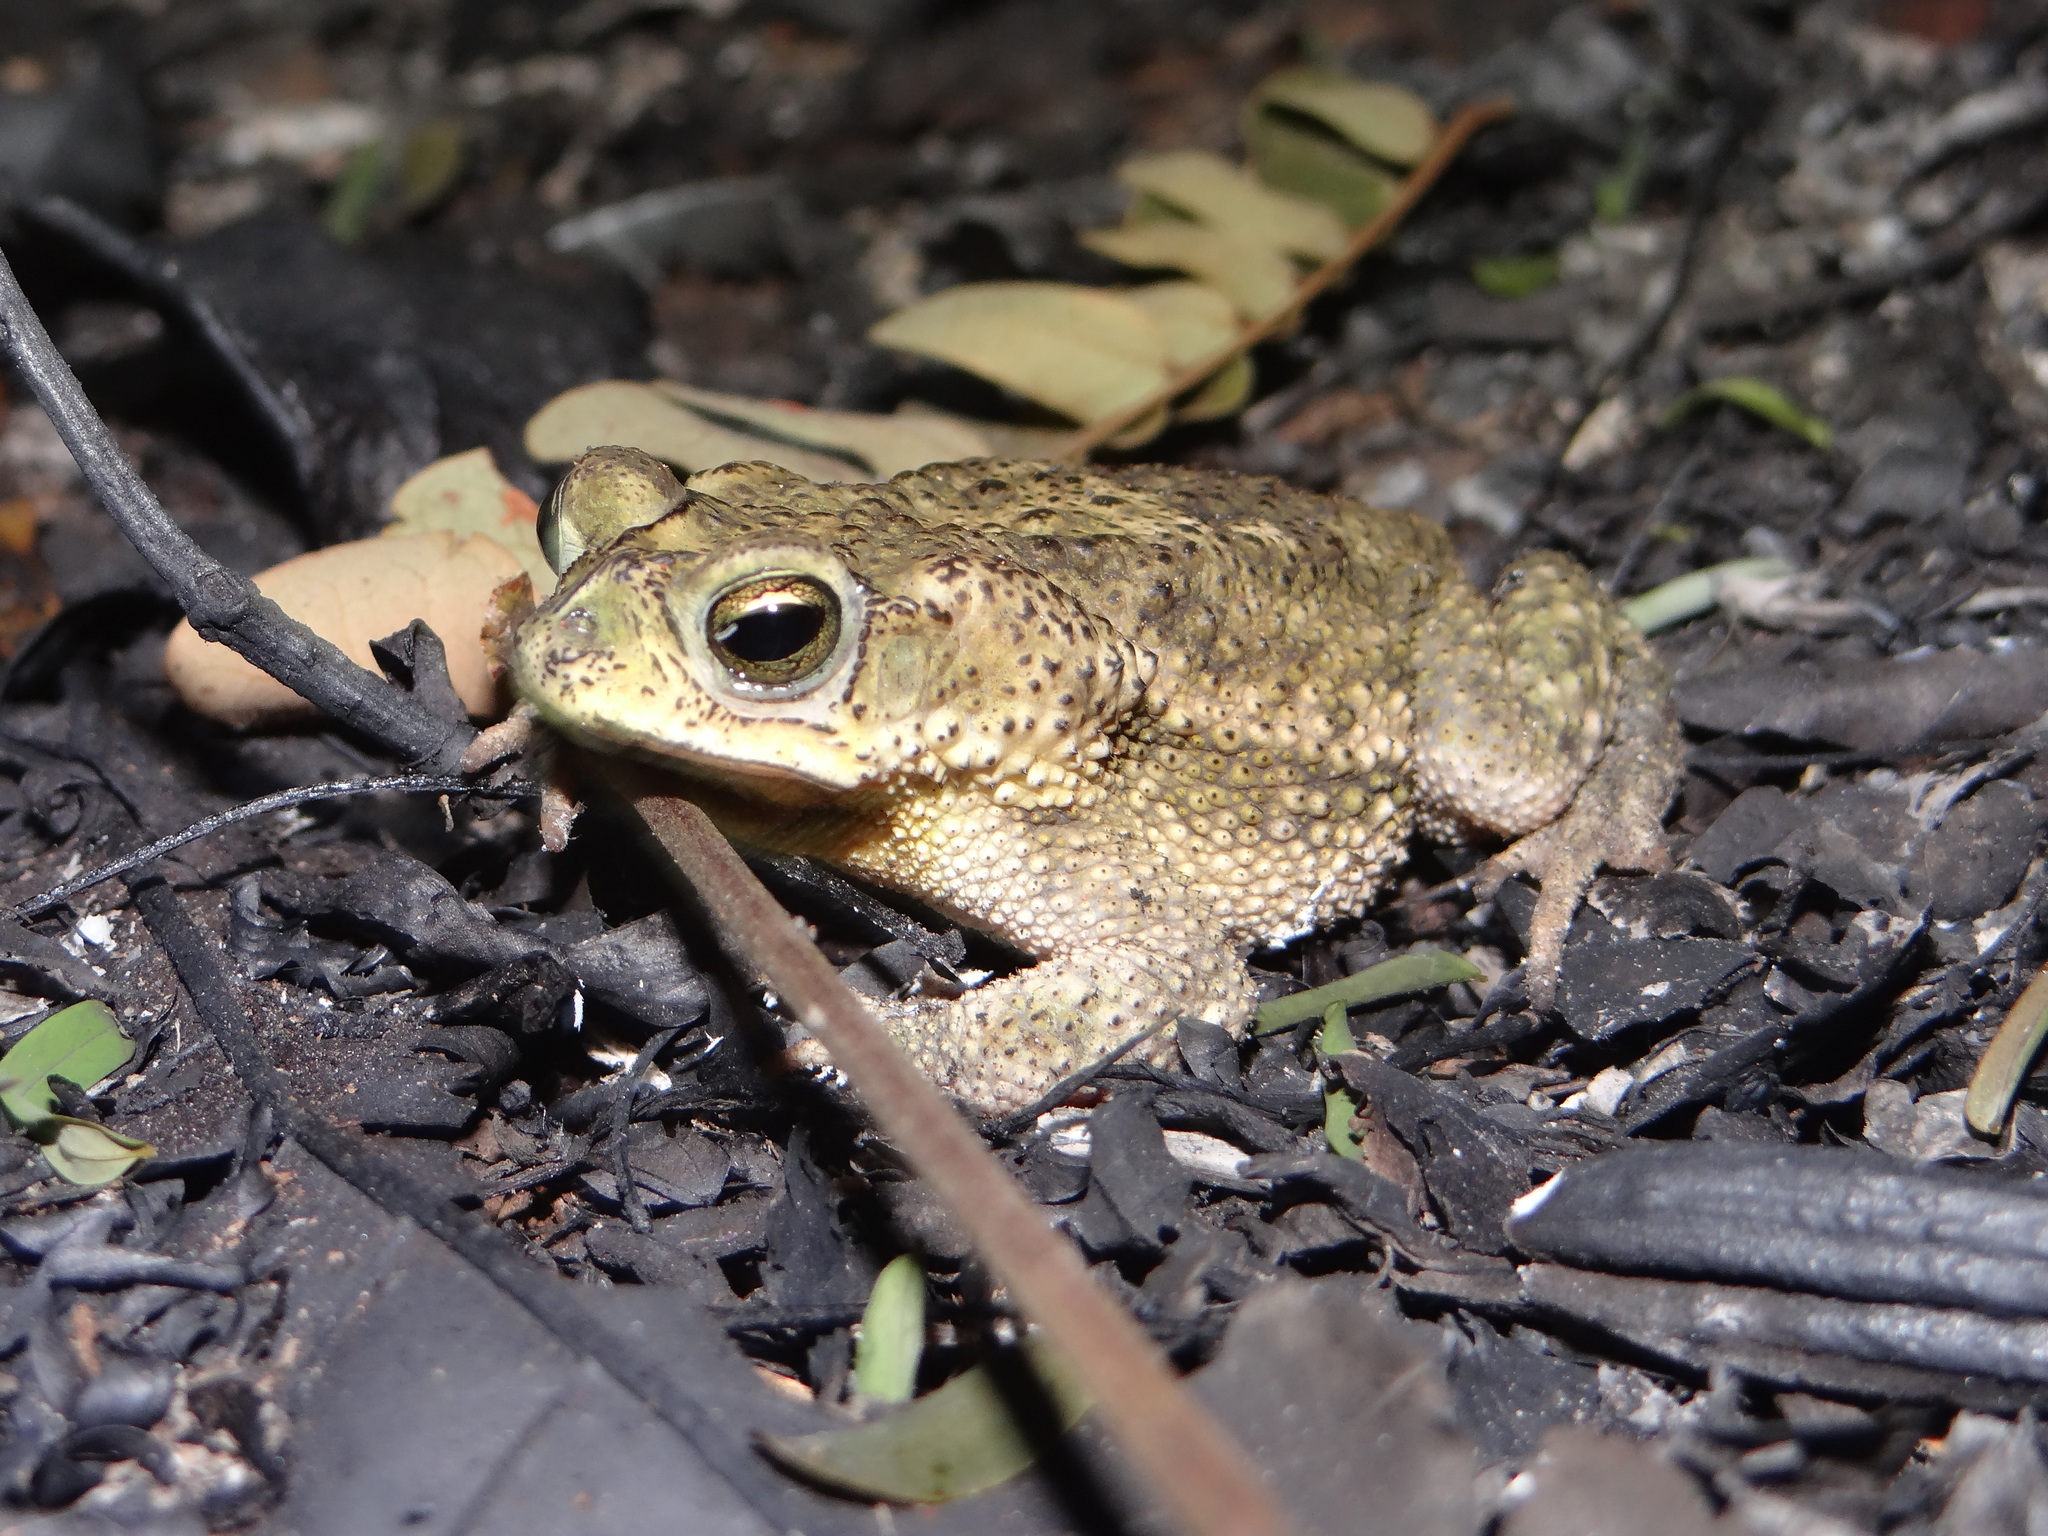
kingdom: Animalia
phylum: Chordata
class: Amphibia
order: Anura
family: Bufonidae
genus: Rhinella
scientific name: Rhinella major
